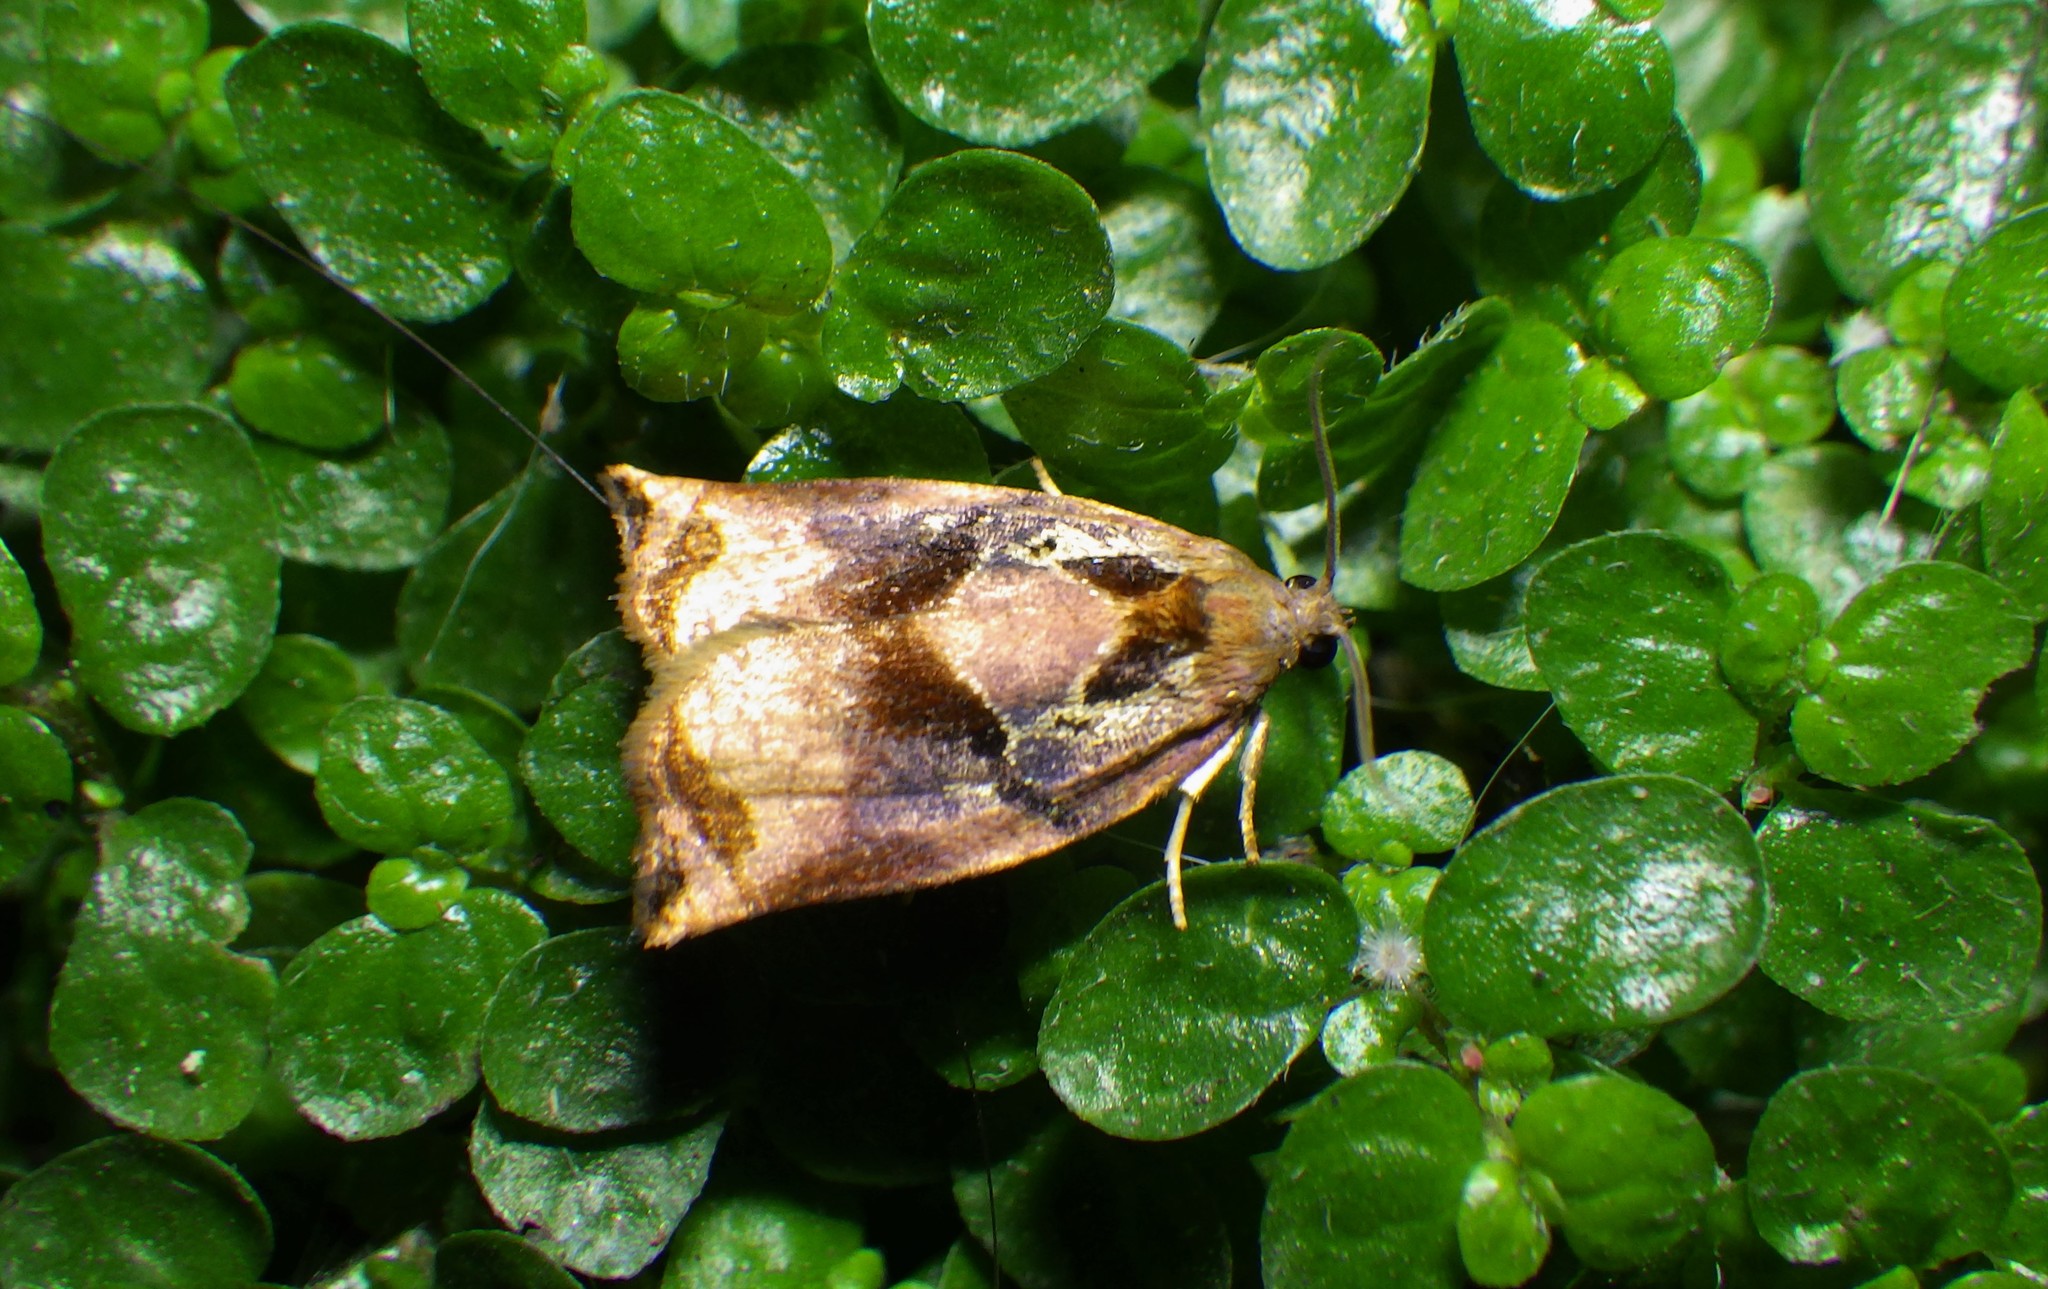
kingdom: Animalia
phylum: Arthropoda
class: Insecta
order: Lepidoptera
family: Tortricidae
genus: Archips
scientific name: Archips podana
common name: Large fruit-tree tortrix
